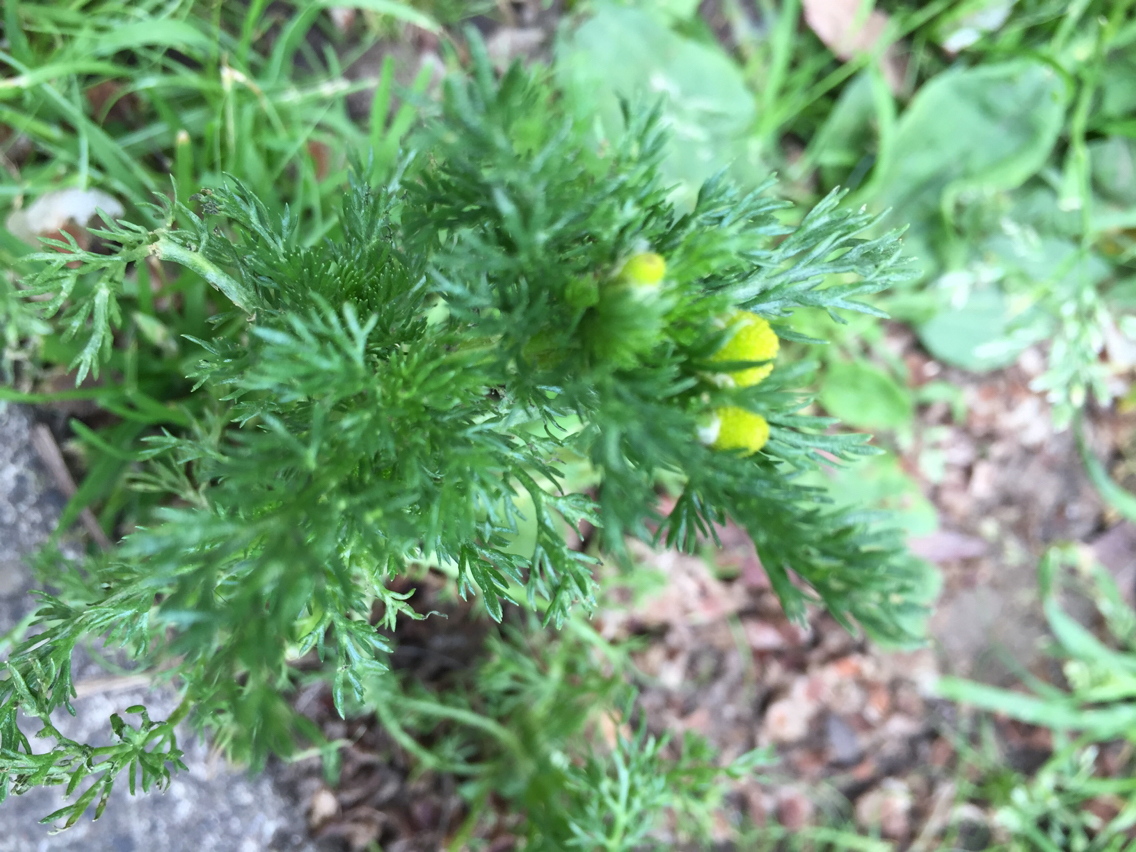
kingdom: Plantae
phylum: Tracheophyta
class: Magnoliopsida
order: Asterales
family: Asteraceae
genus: Matricaria
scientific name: Matricaria discoidea
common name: Disc mayweed
